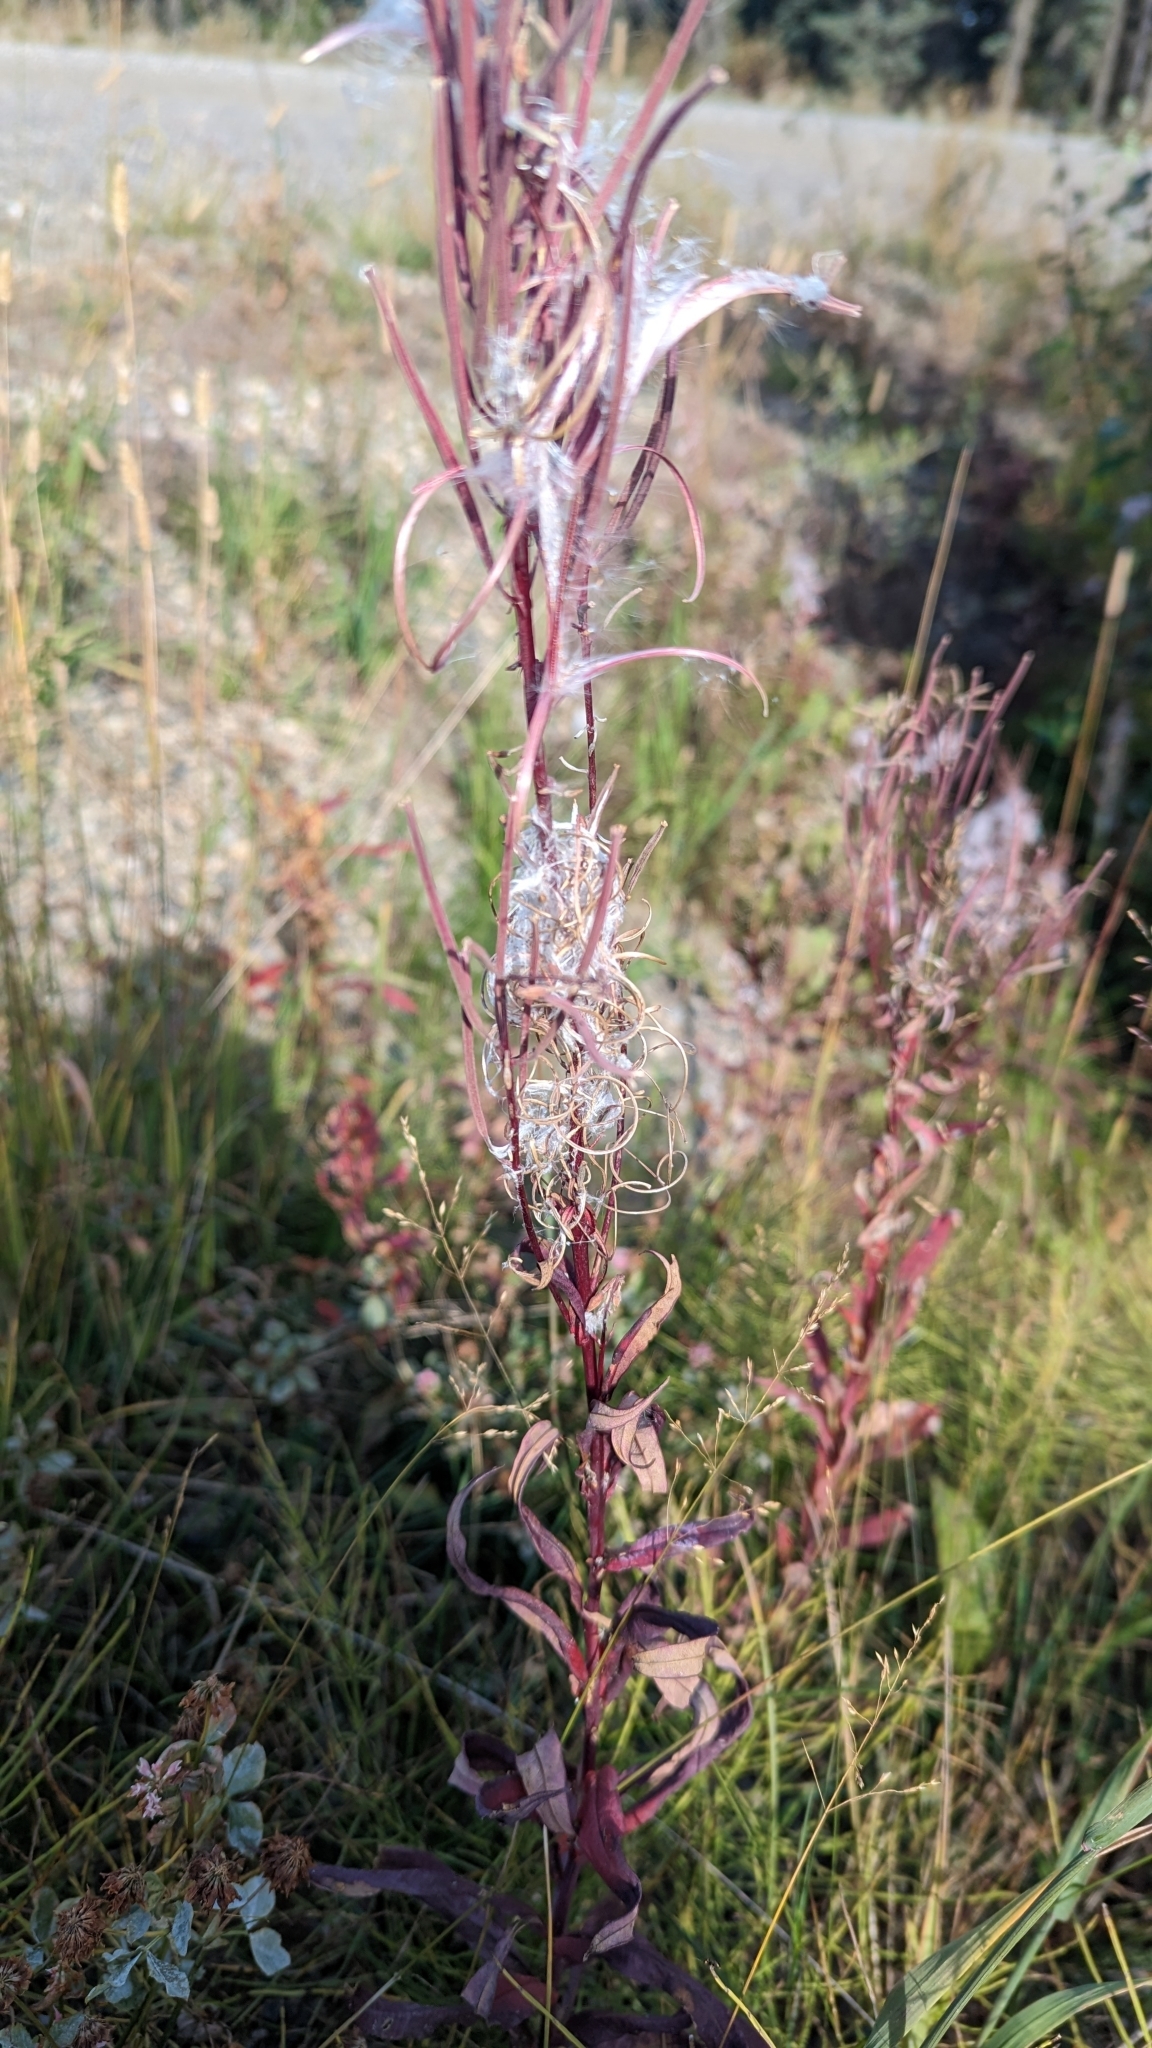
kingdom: Plantae
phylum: Tracheophyta
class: Magnoliopsida
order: Myrtales
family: Onagraceae
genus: Chamaenerion
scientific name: Chamaenerion angustifolium
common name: Fireweed
